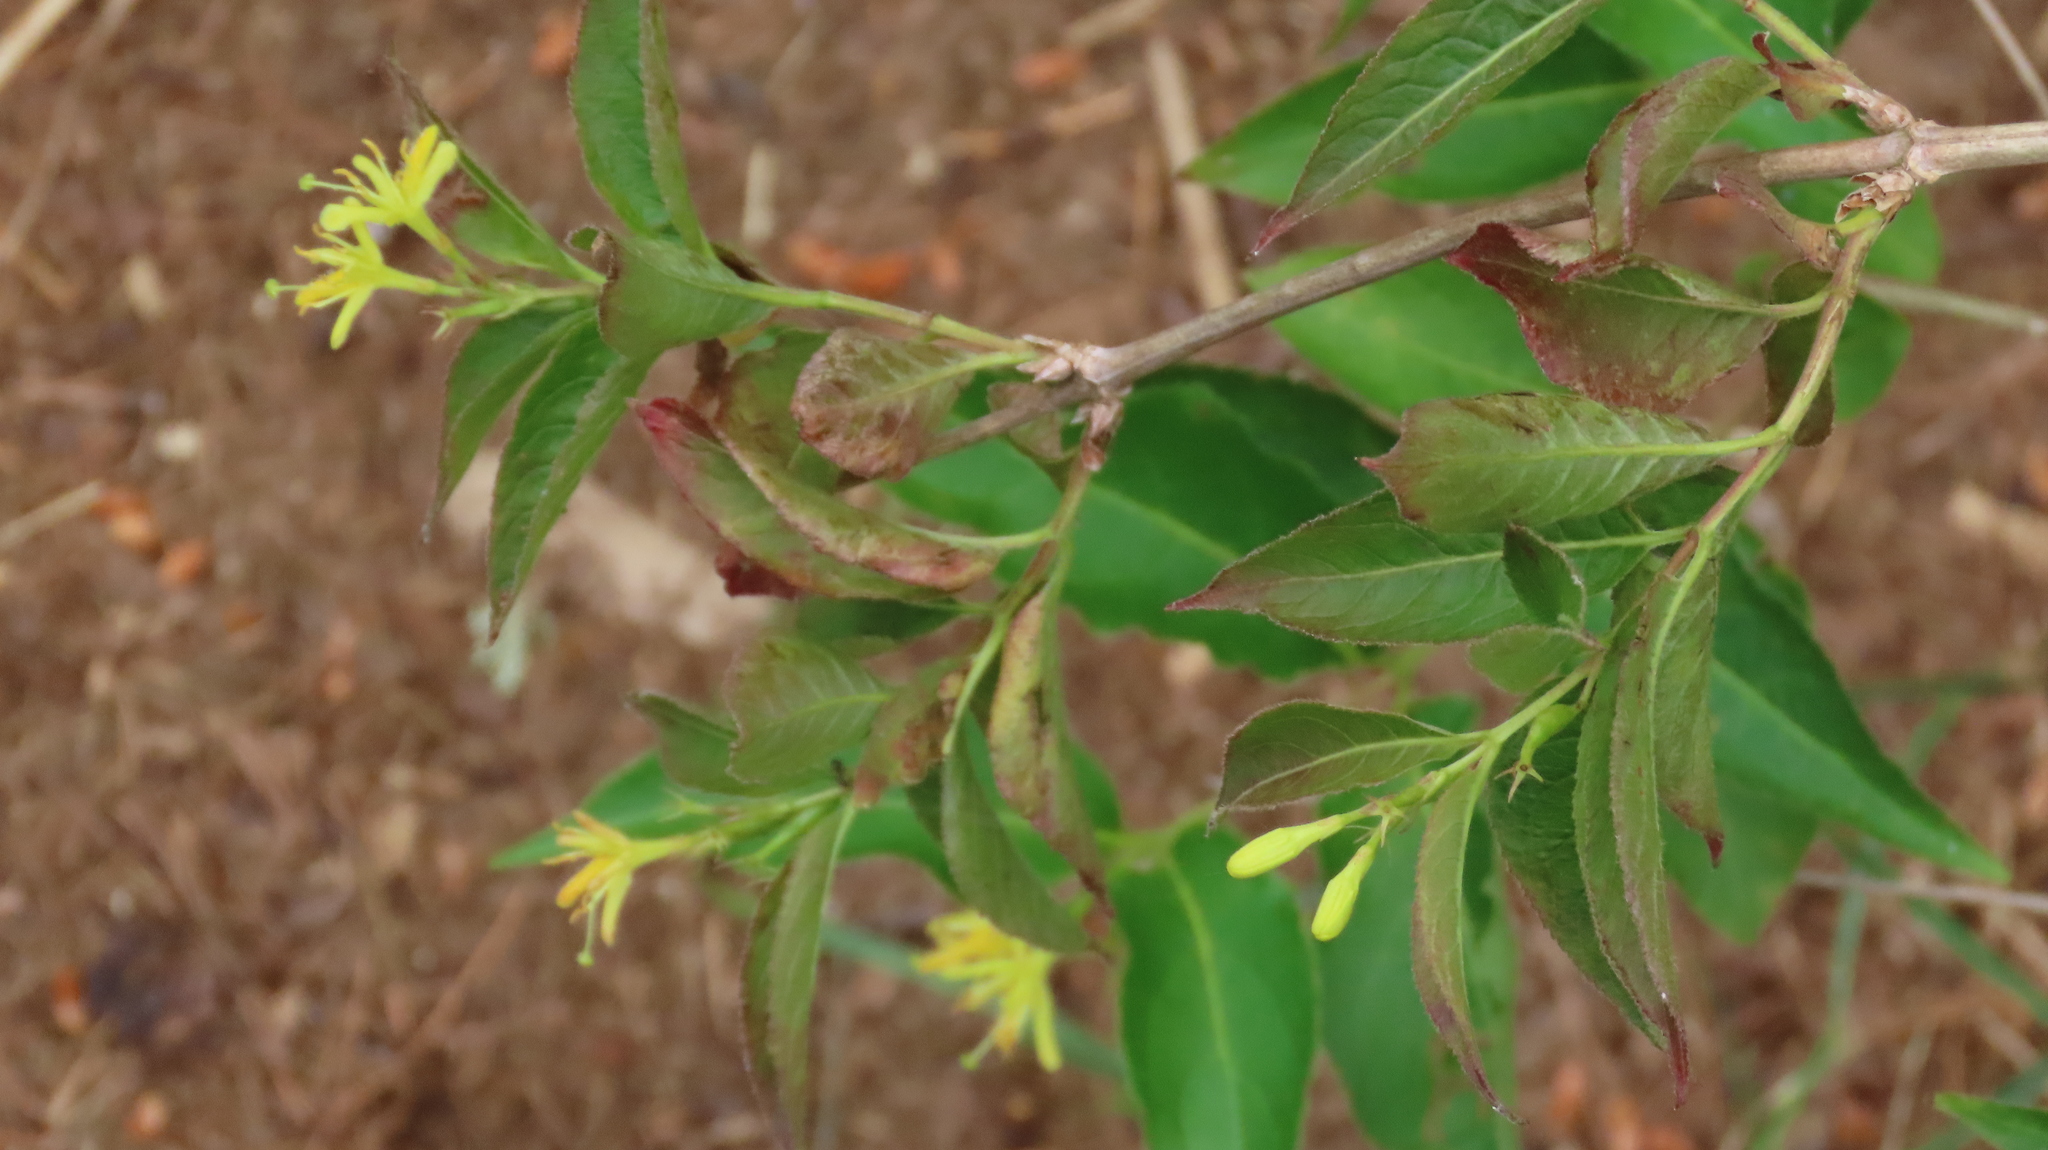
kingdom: Plantae
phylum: Tracheophyta
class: Magnoliopsida
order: Dipsacales
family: Caprifoliaceae
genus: Diervilla
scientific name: Diervilla lonicera
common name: Bush-honeysuckle
